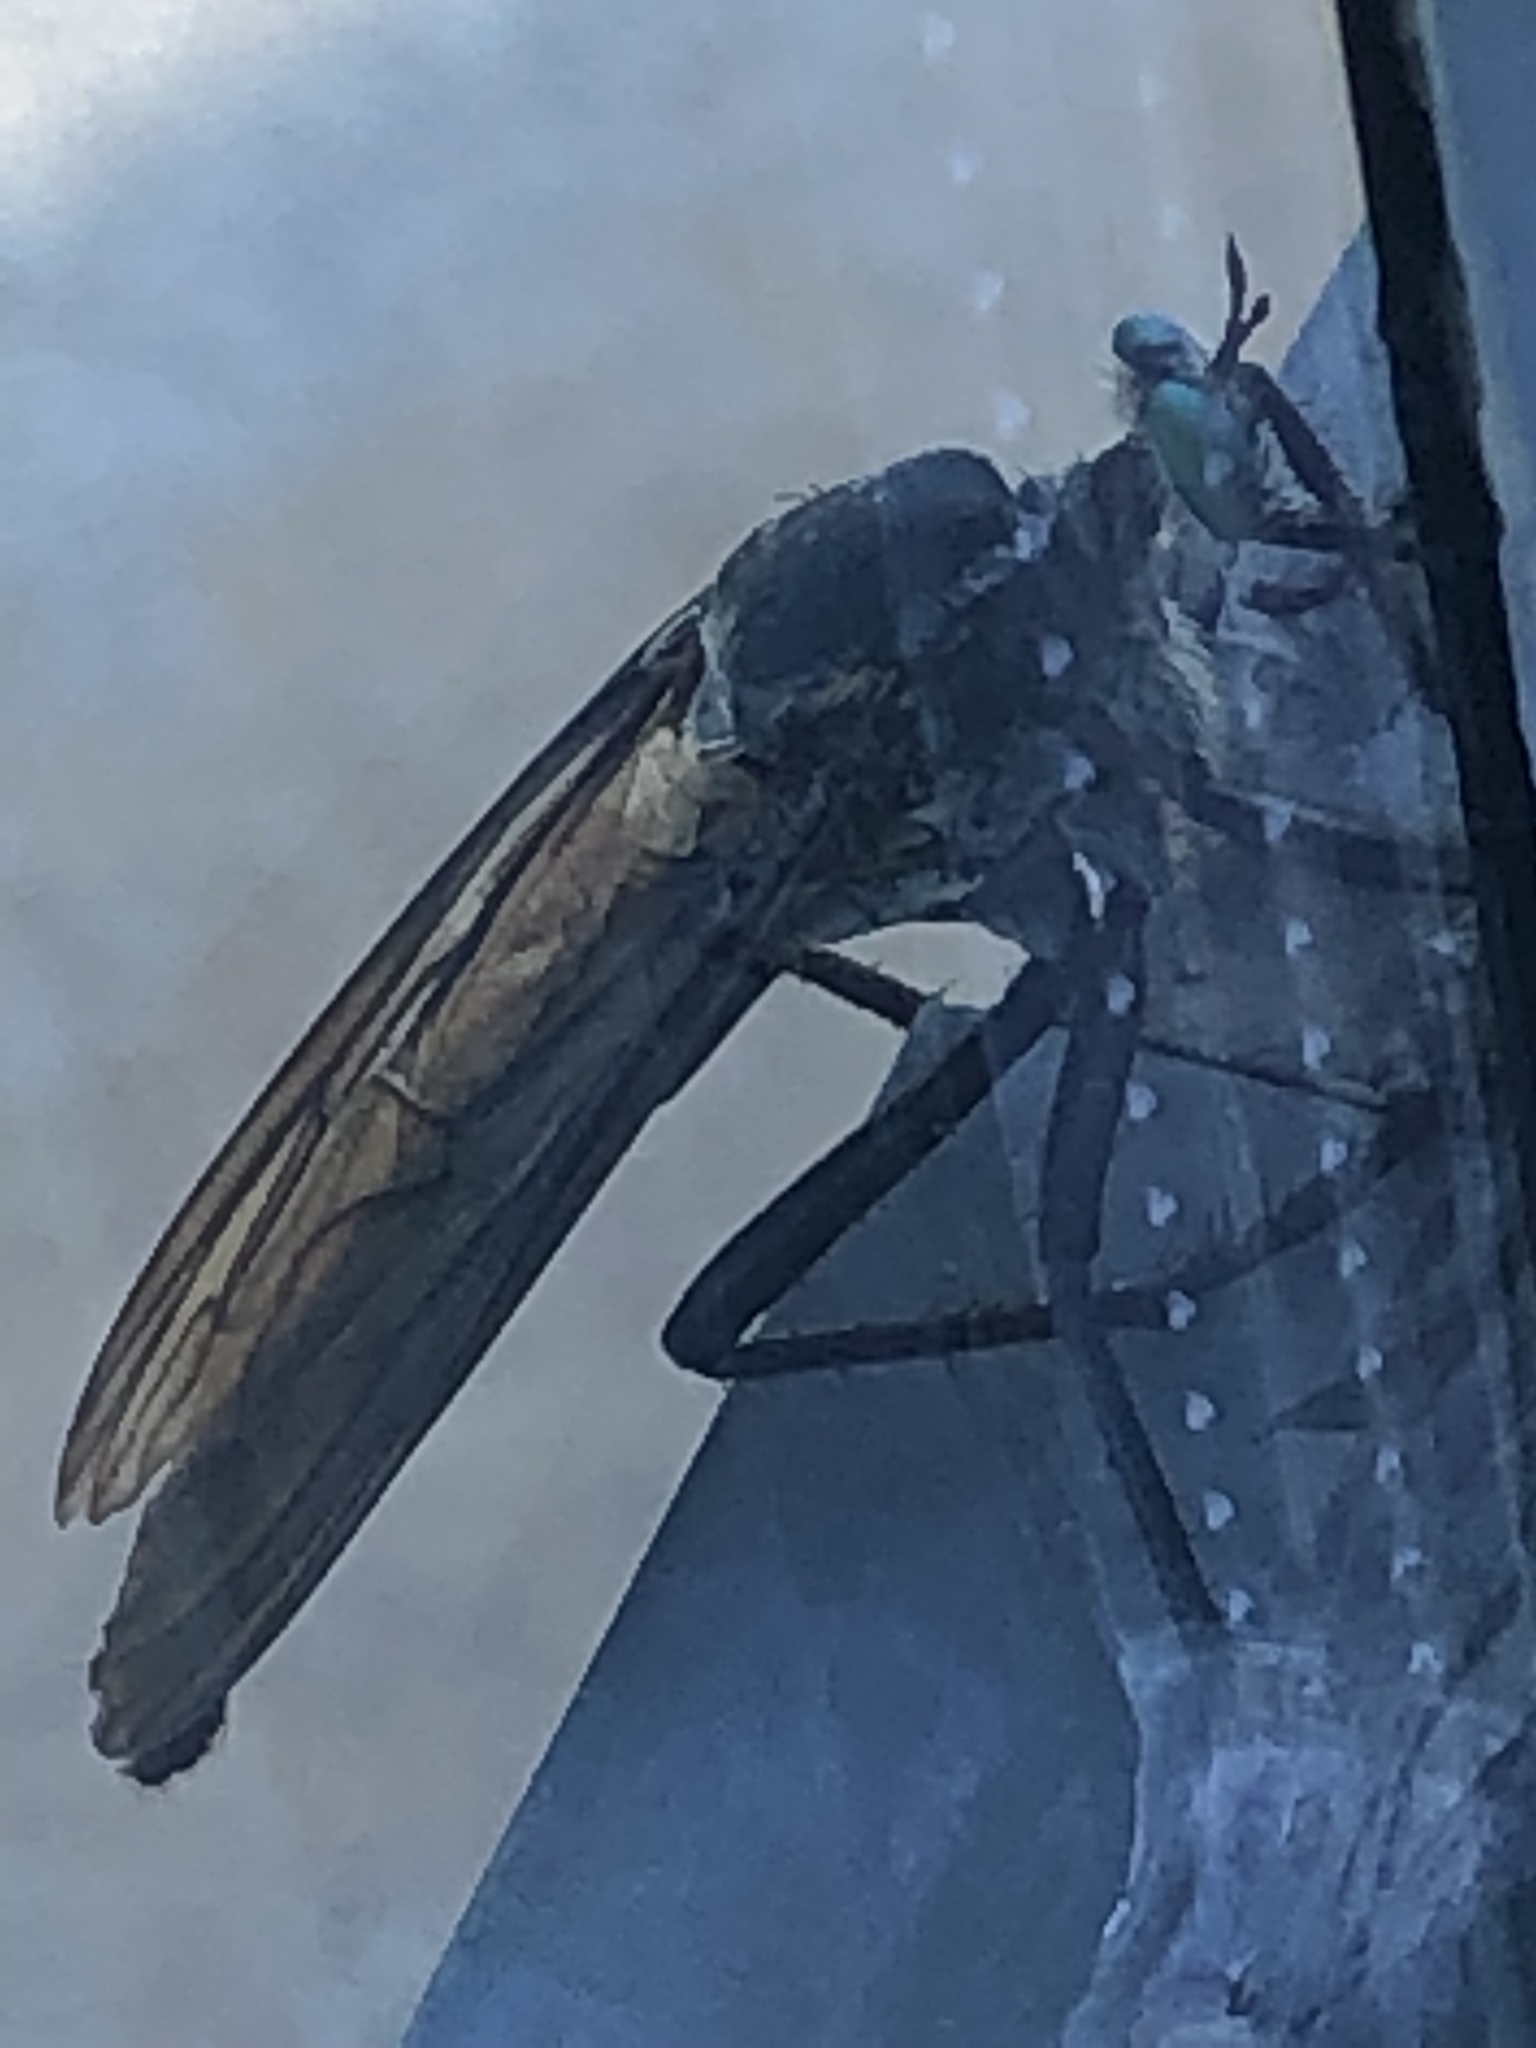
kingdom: Animalia
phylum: Arthropoda
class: Insecta
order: Diptera
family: Asilidae
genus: Microstylum
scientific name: Microstylum morosum
